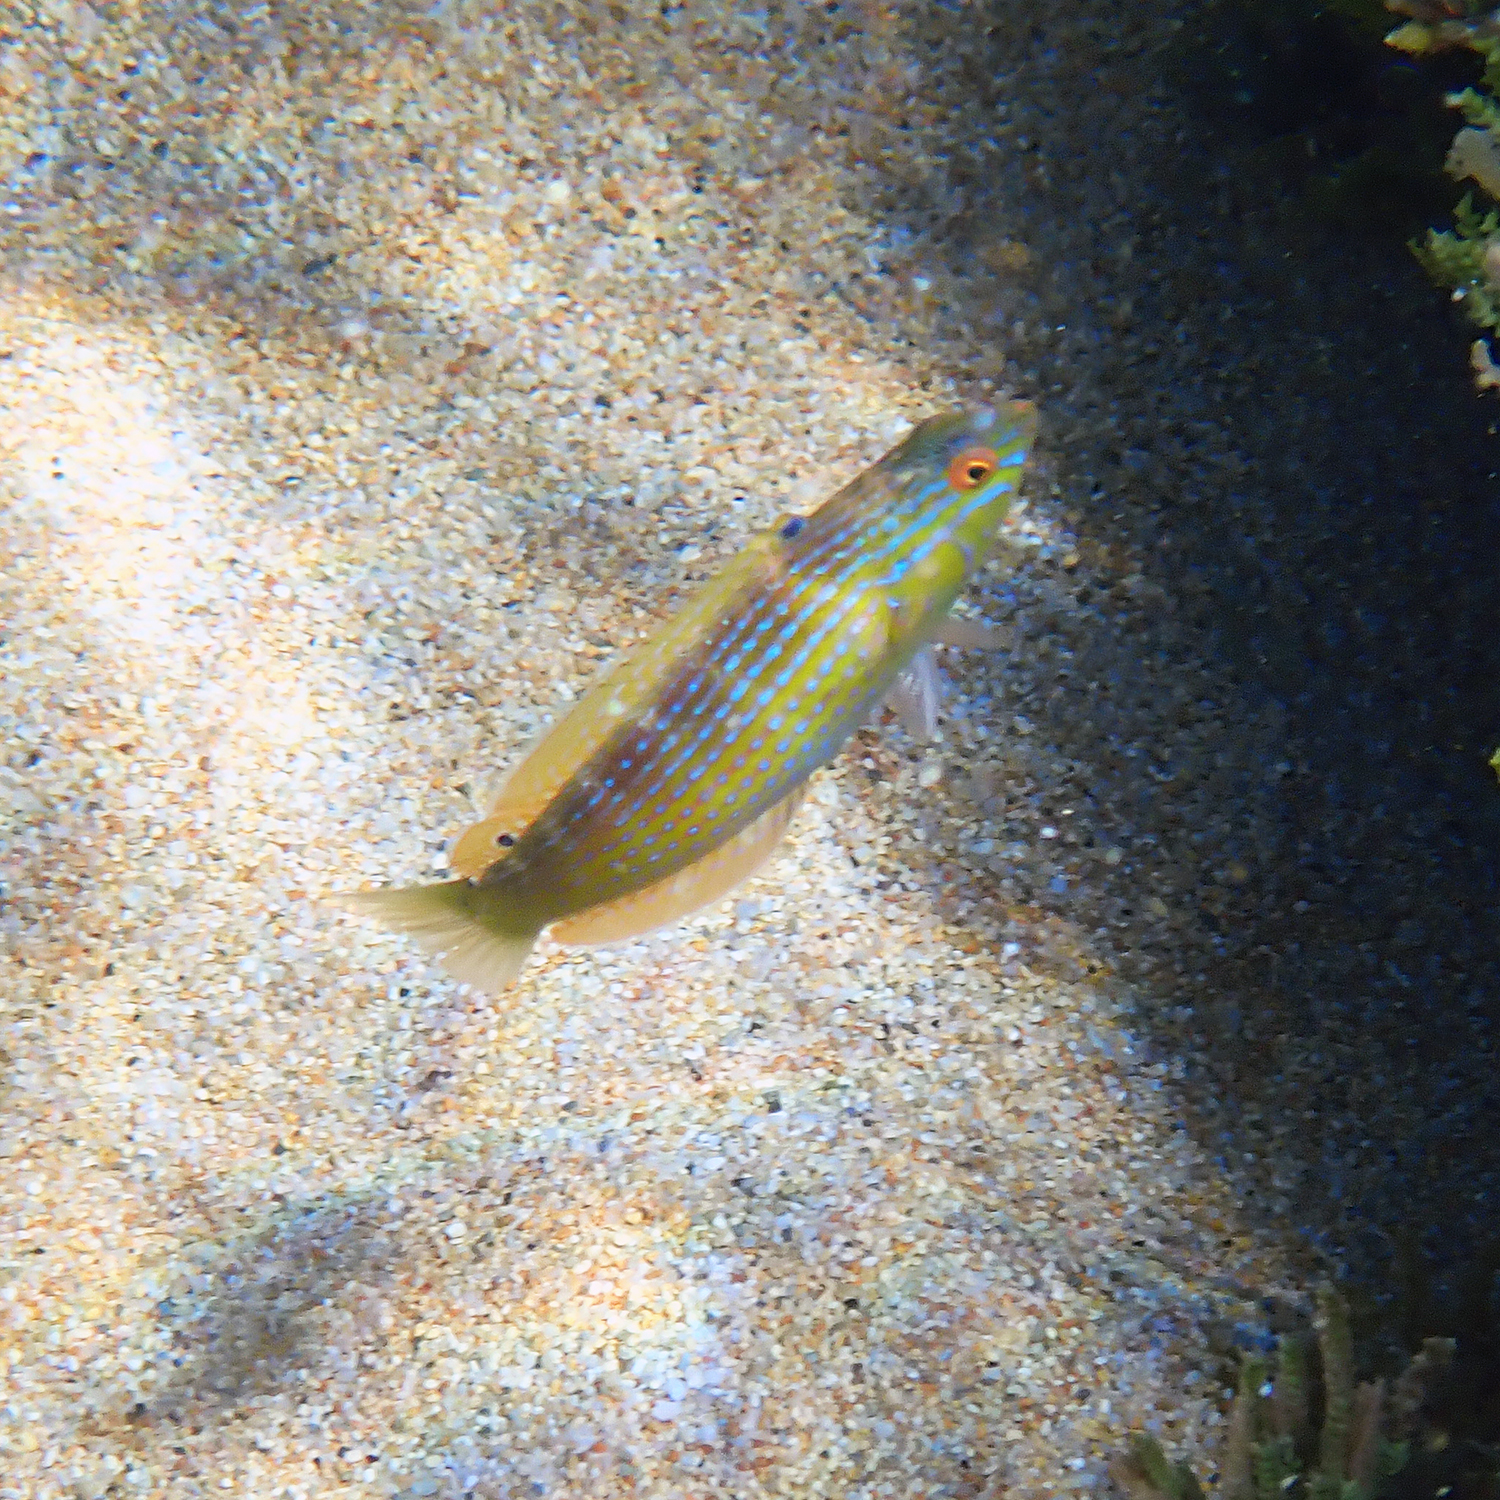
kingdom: Animalia
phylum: Chordata
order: Perciformes
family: Labridae
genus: Suezichthys
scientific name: Suezichthys arquatus
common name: Rainbow slender wrasse
